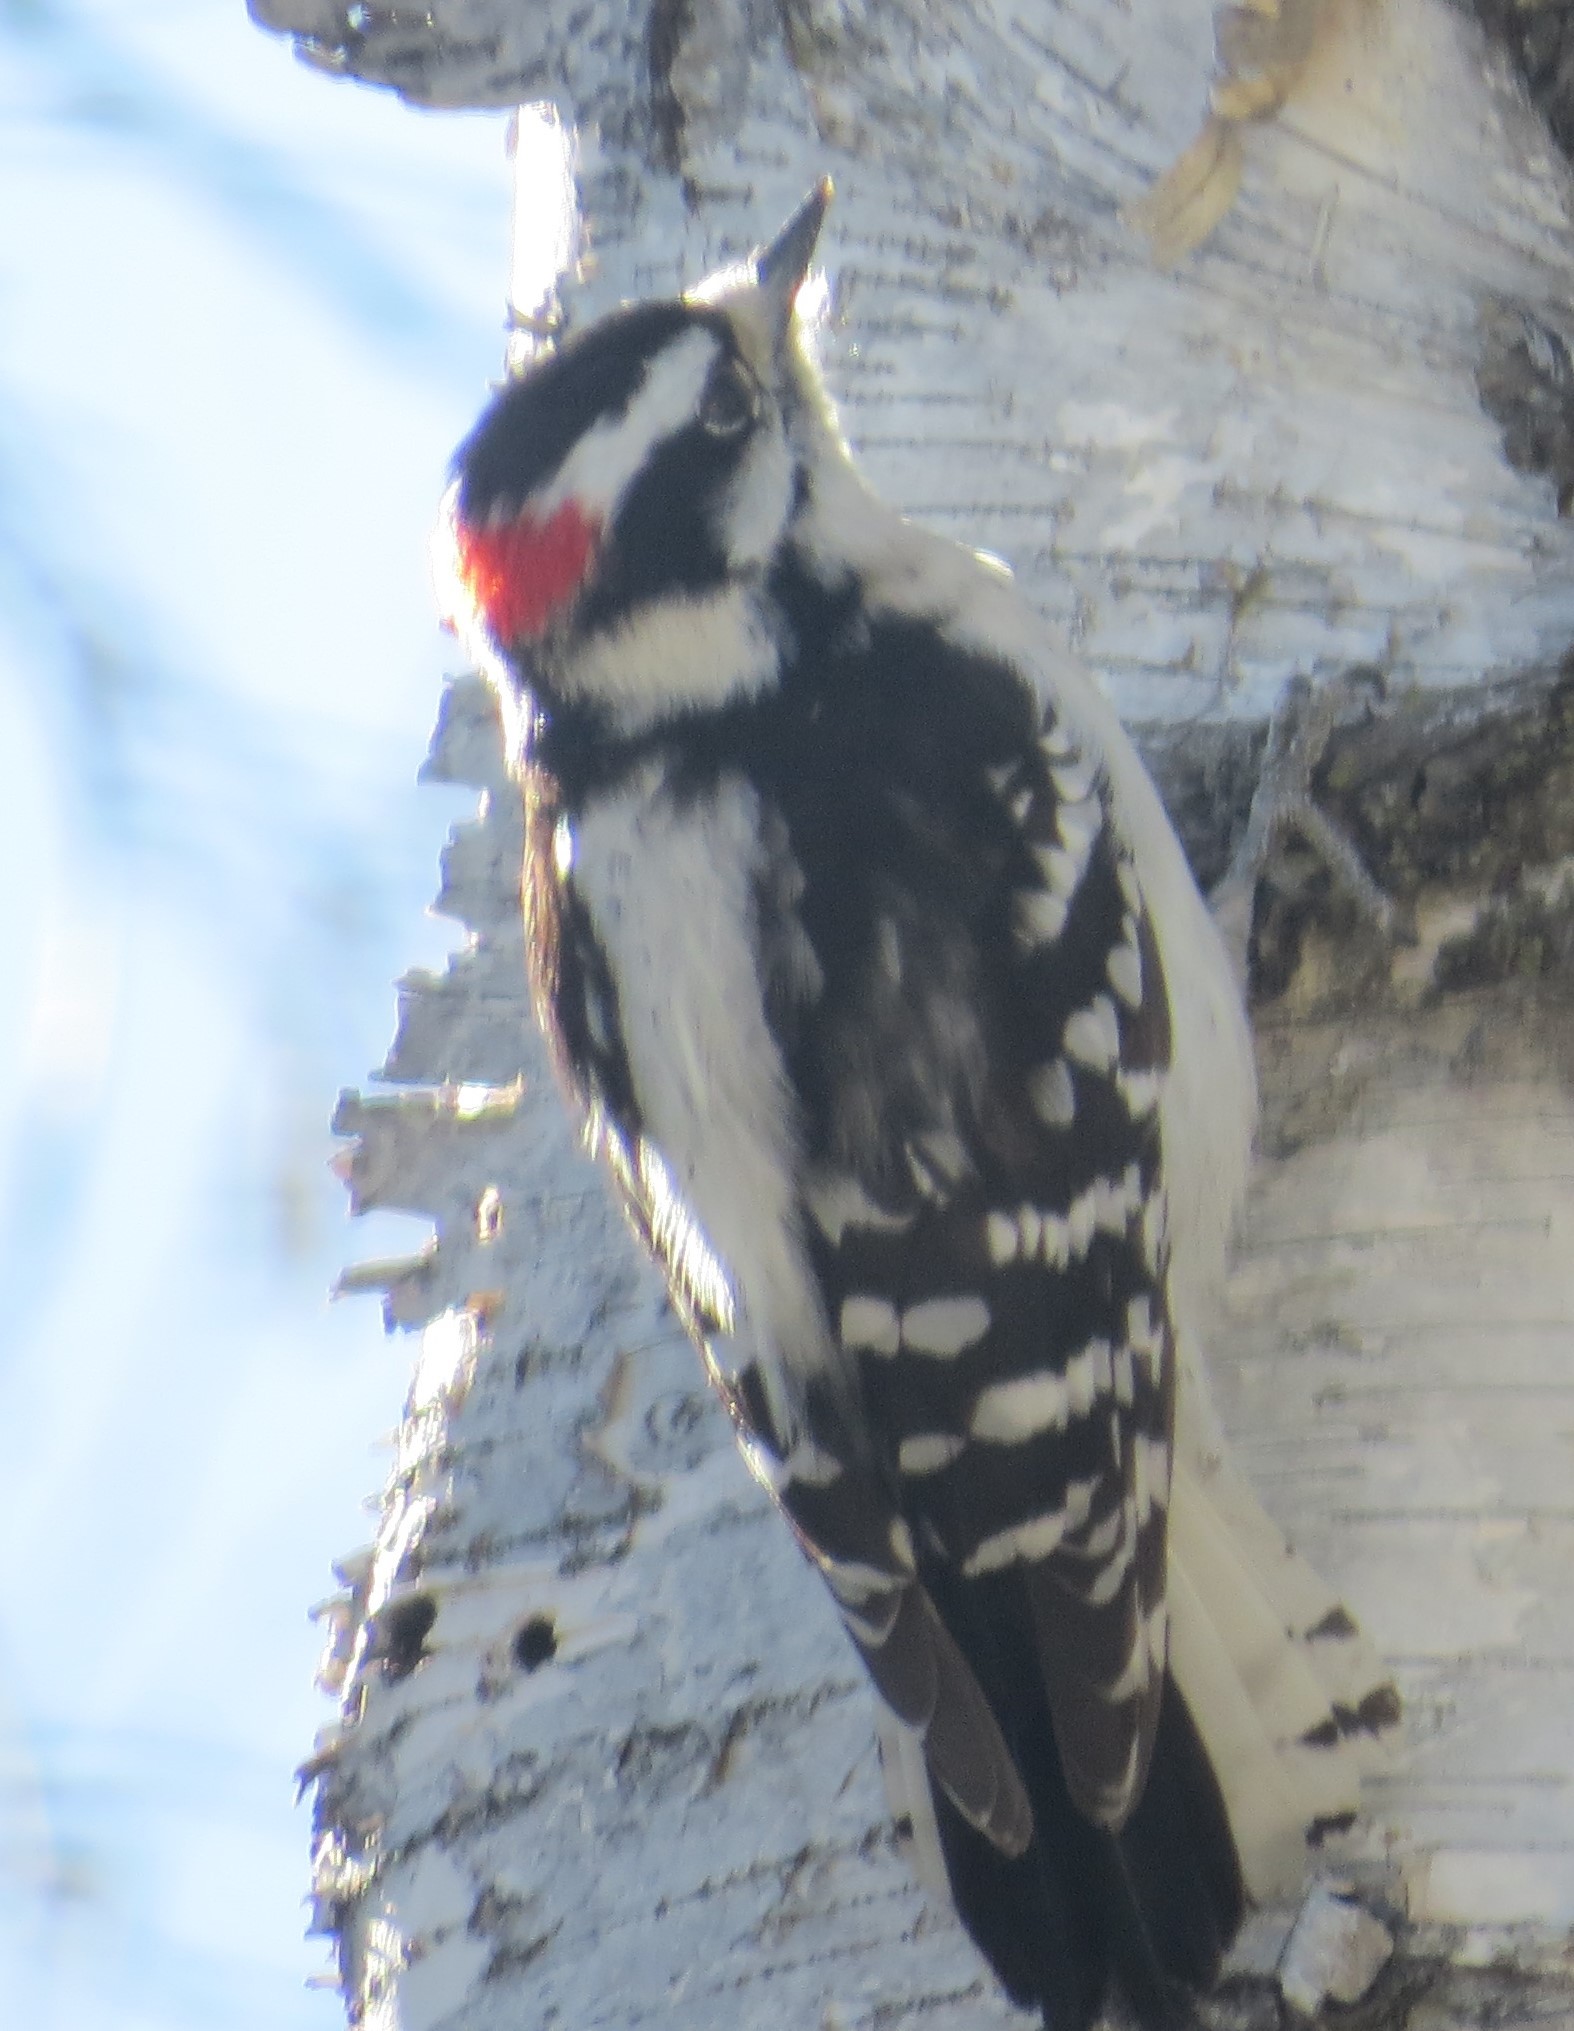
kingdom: Animalia
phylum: Chordata
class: Aves
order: Piciformes
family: Picidae
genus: Dryobates
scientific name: Dryobates pubescens
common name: Downy woodpecker
